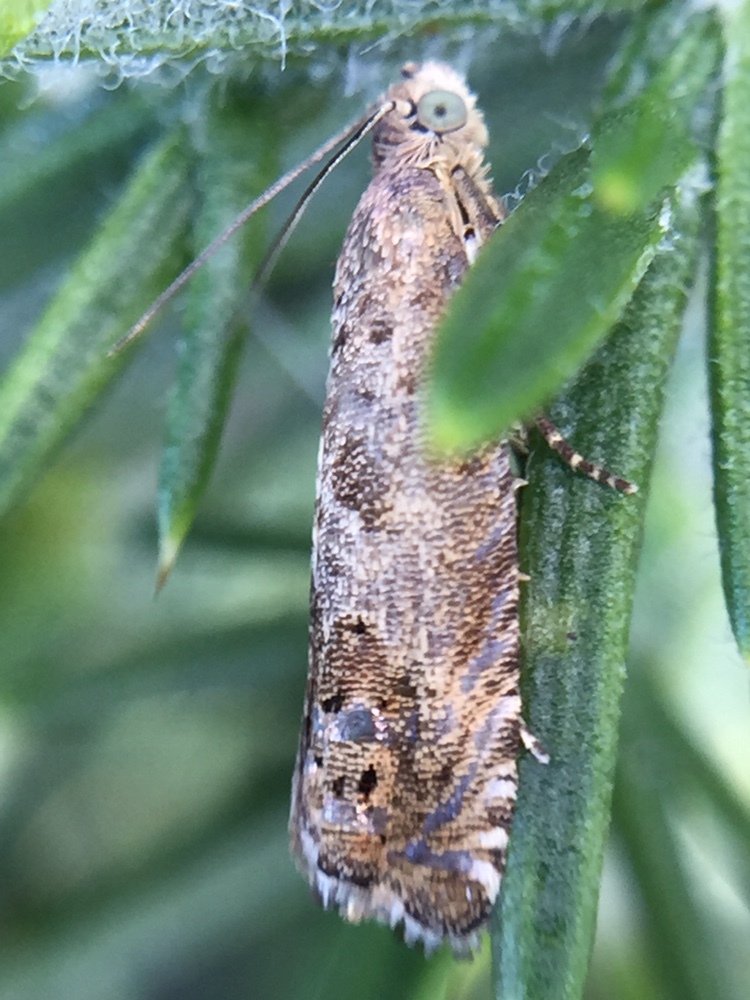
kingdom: Animalia
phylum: Arthropoda
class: Insecta
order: Lepidoptera
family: Tortricidae
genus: Cydia
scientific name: Cydia succedana
